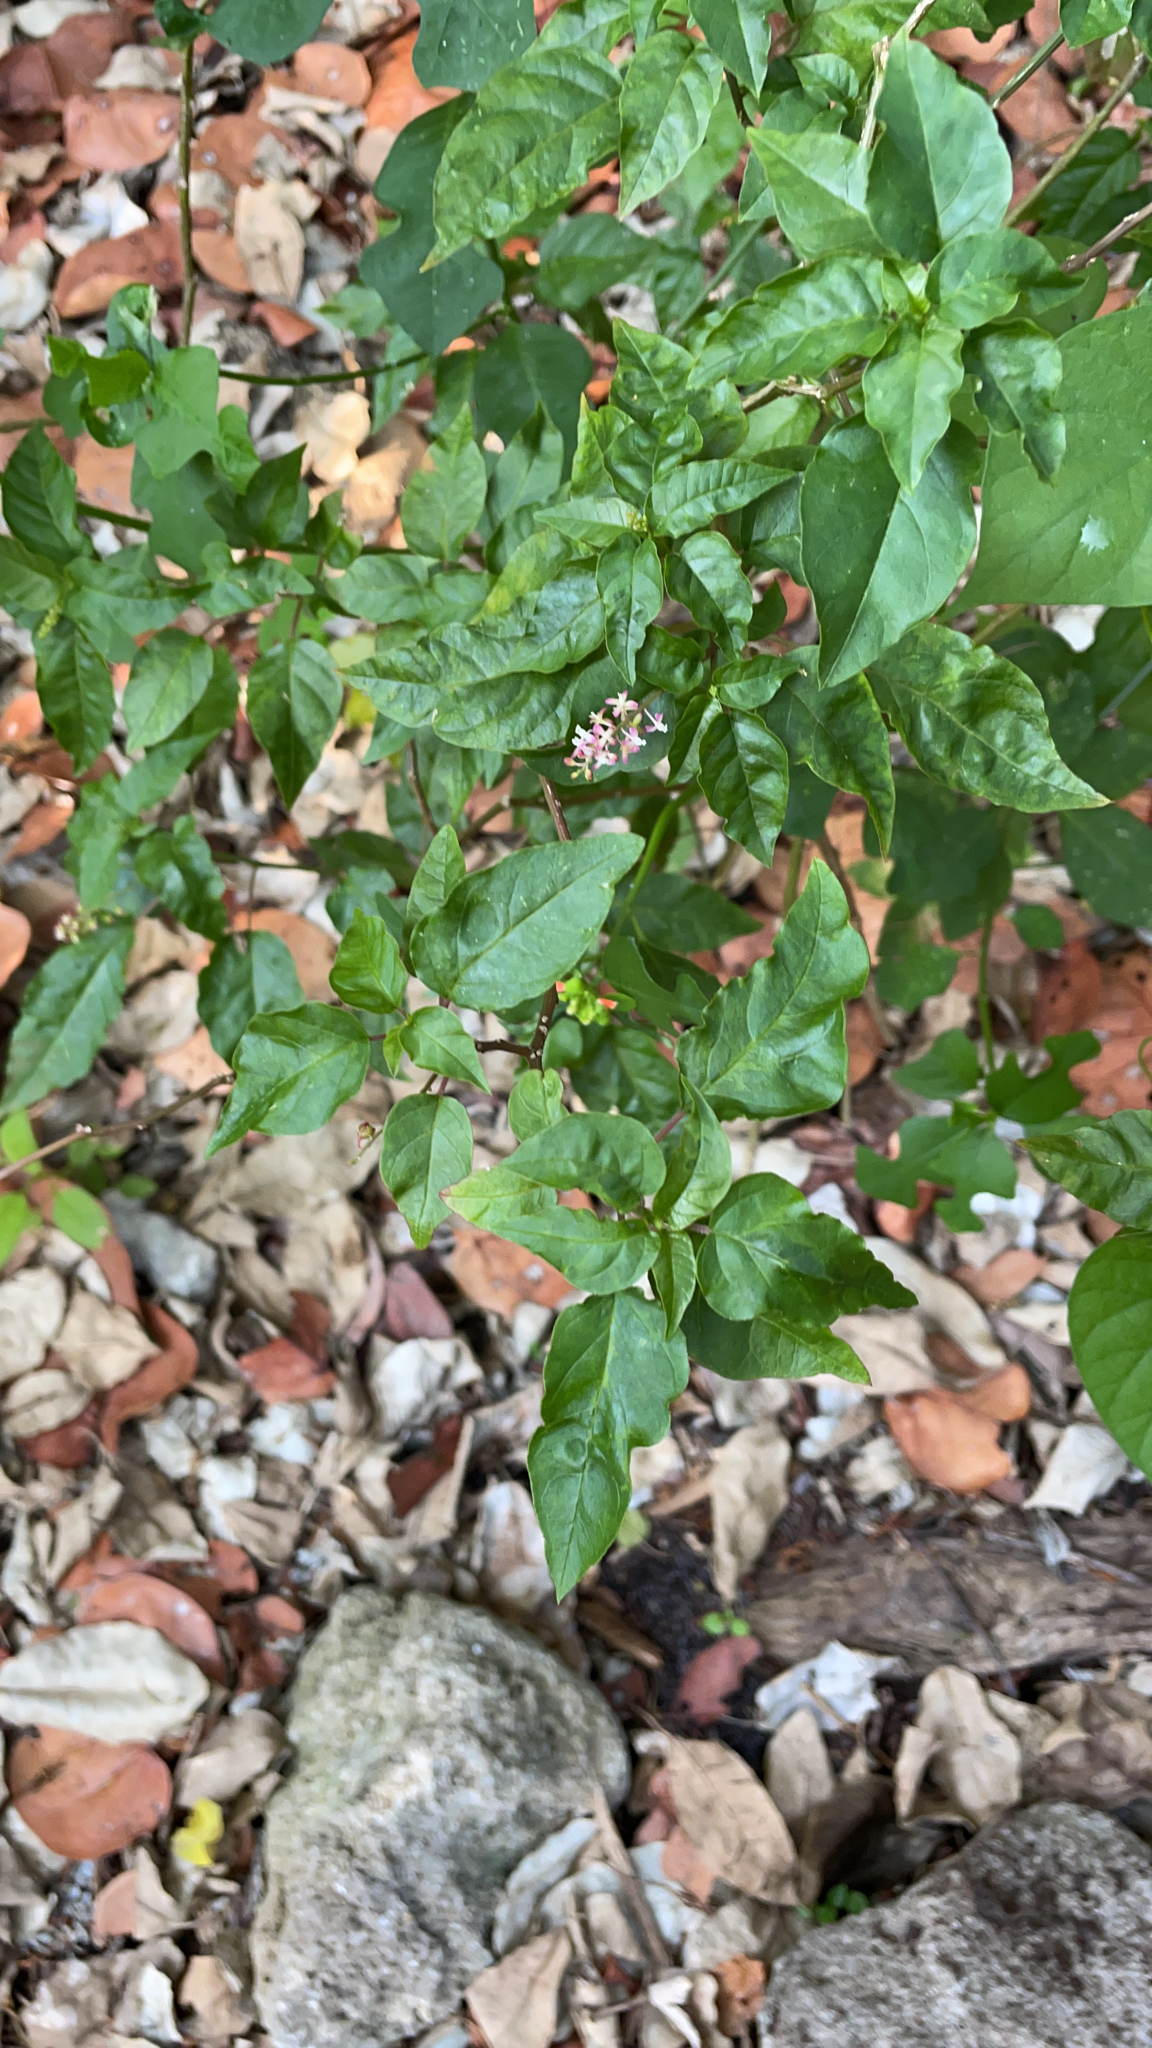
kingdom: Plantae
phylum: Tracheophyta
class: Magnoliopsida
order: Caryophyllales
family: Phytolaccaceae
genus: Rivina
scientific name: Rivina humilis
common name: Rougeplant
